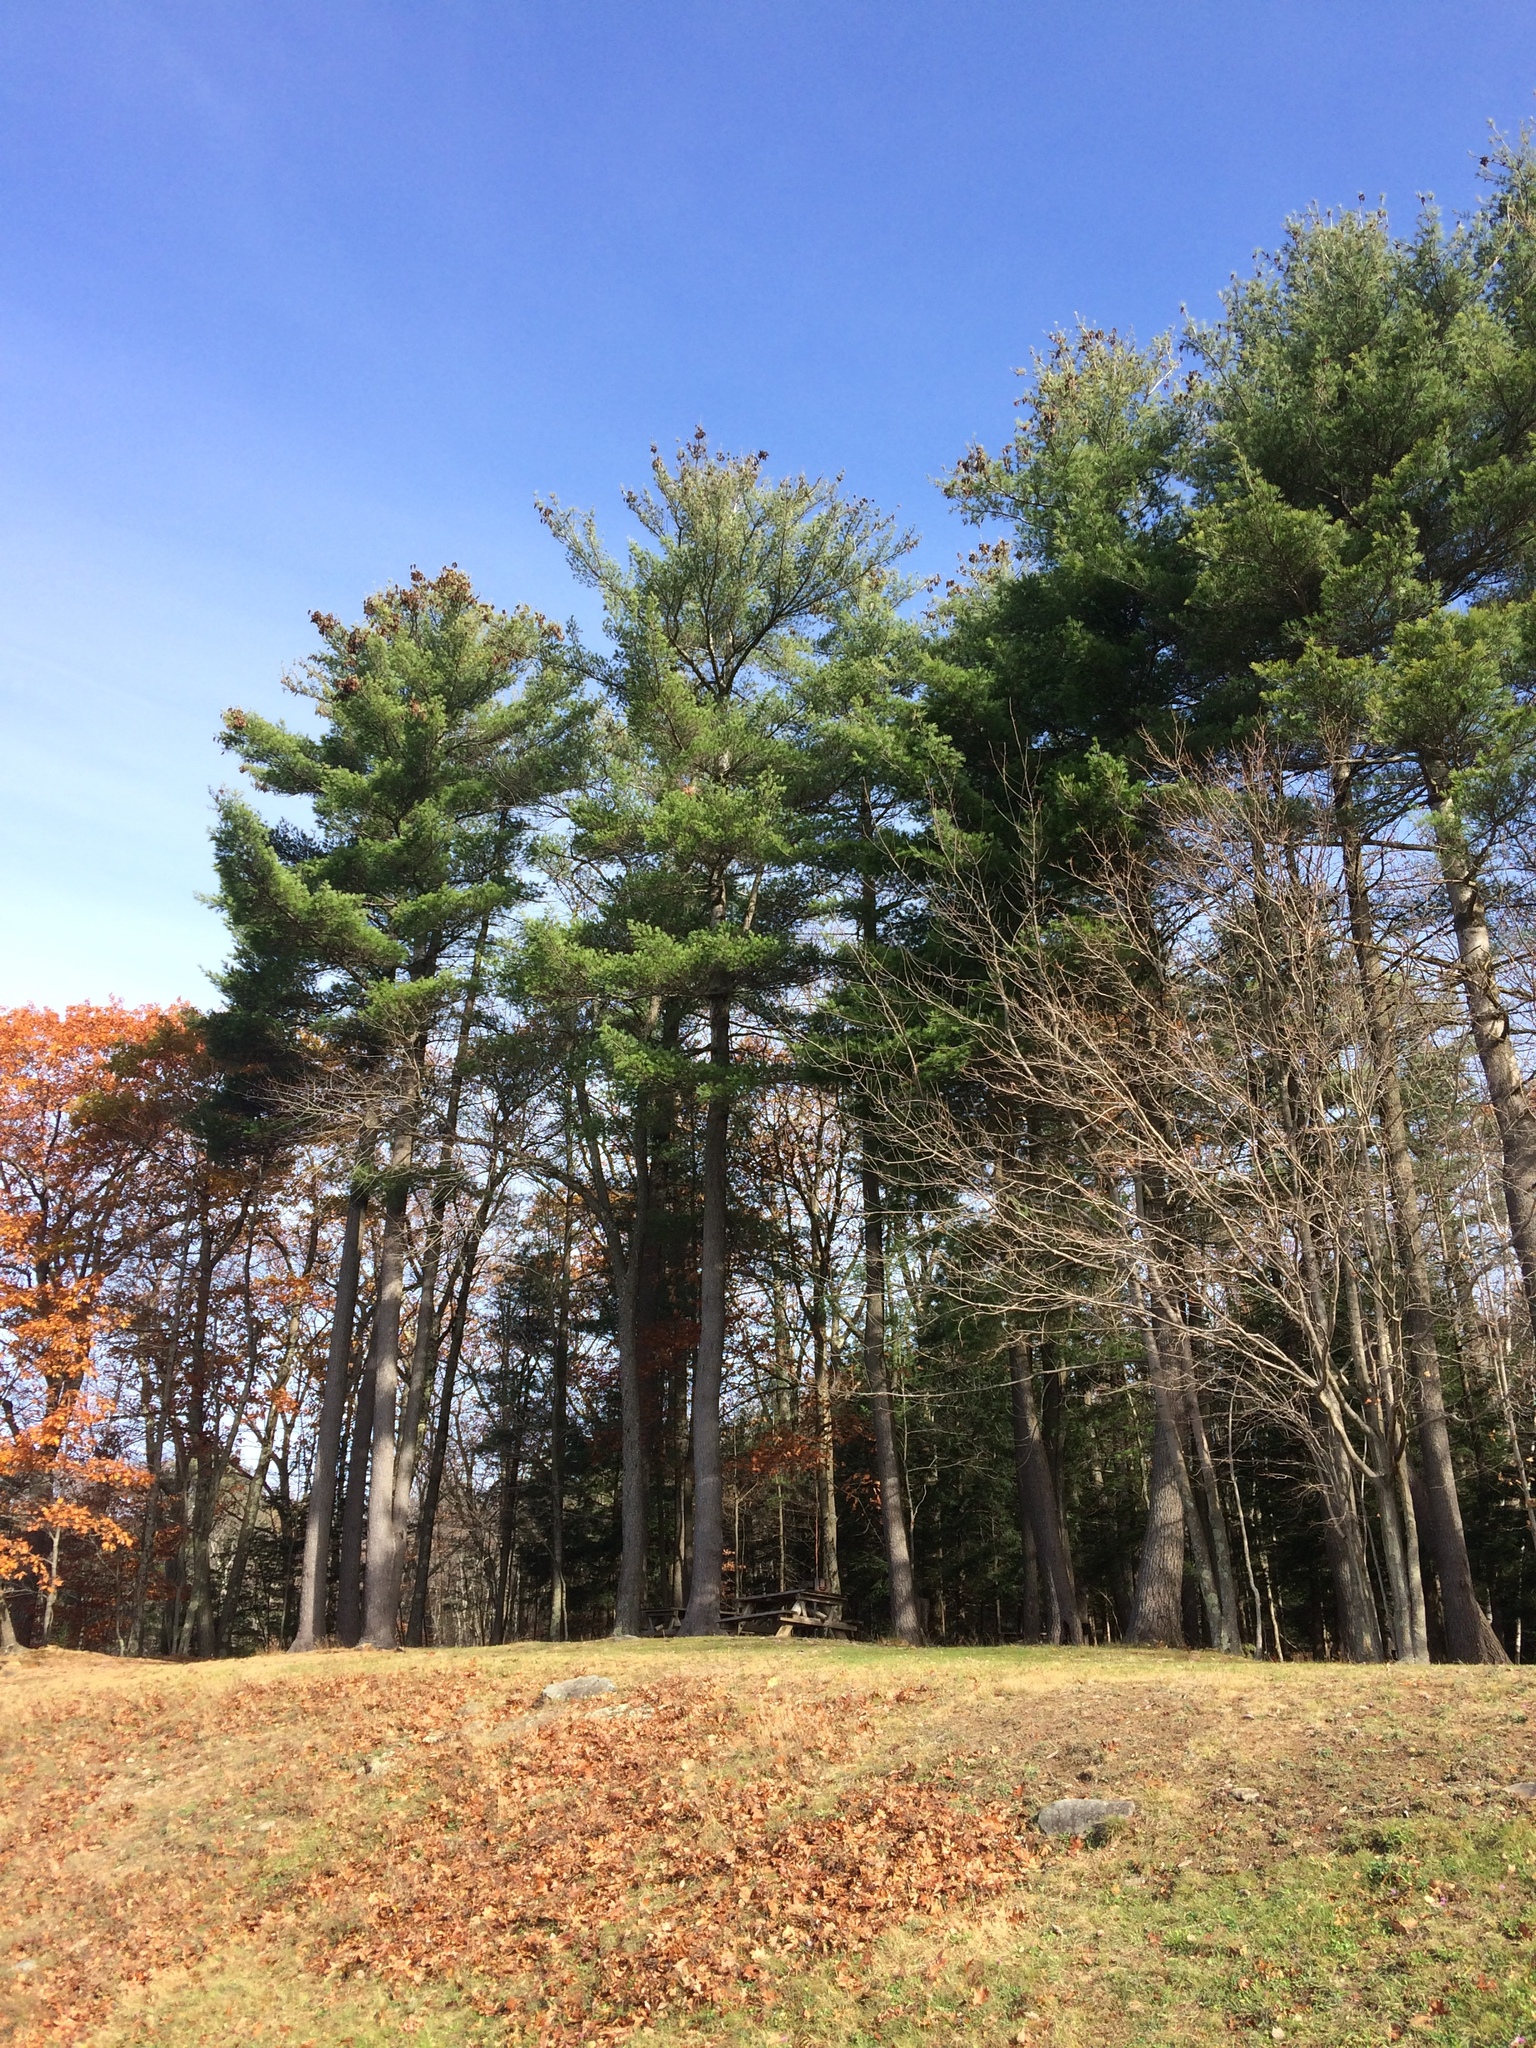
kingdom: Plantae
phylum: Tracheophyta
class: Pinopsida
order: Pinales
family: Pinaceae
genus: Pinus
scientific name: Pinus strobus
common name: Weymouth pine
